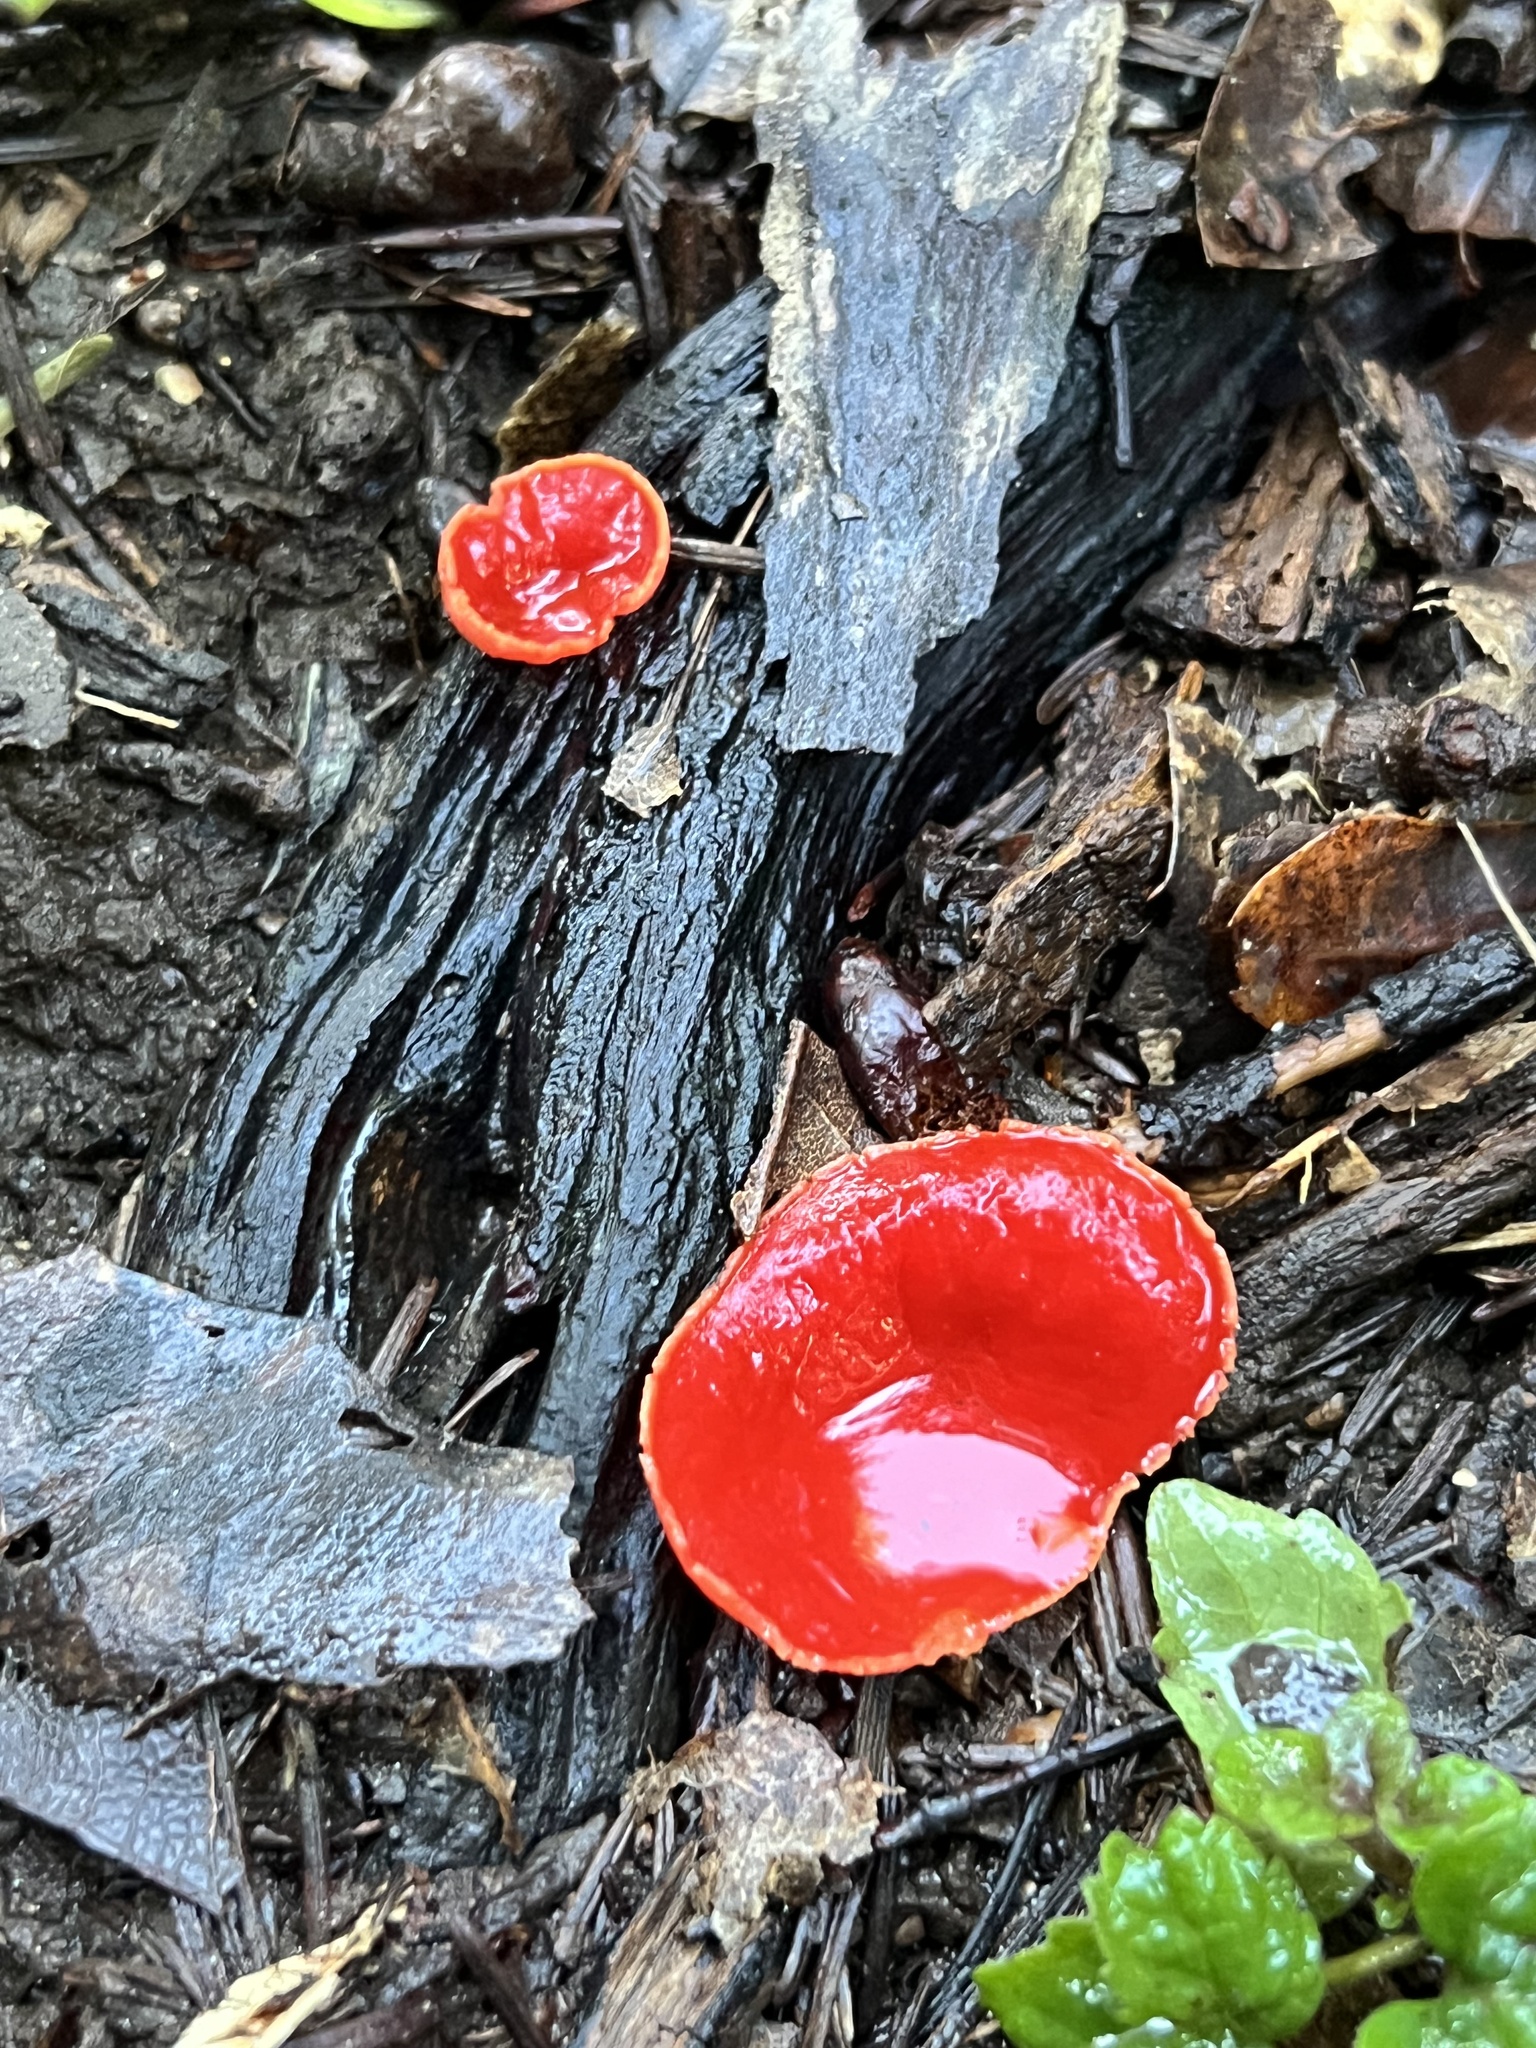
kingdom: Fungi
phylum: Ascomycota
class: Pezizomycetes
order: Pezizales
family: Sarcoscyphaceae
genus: Sarcoscypha
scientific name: Sarcoscypha coccinea
